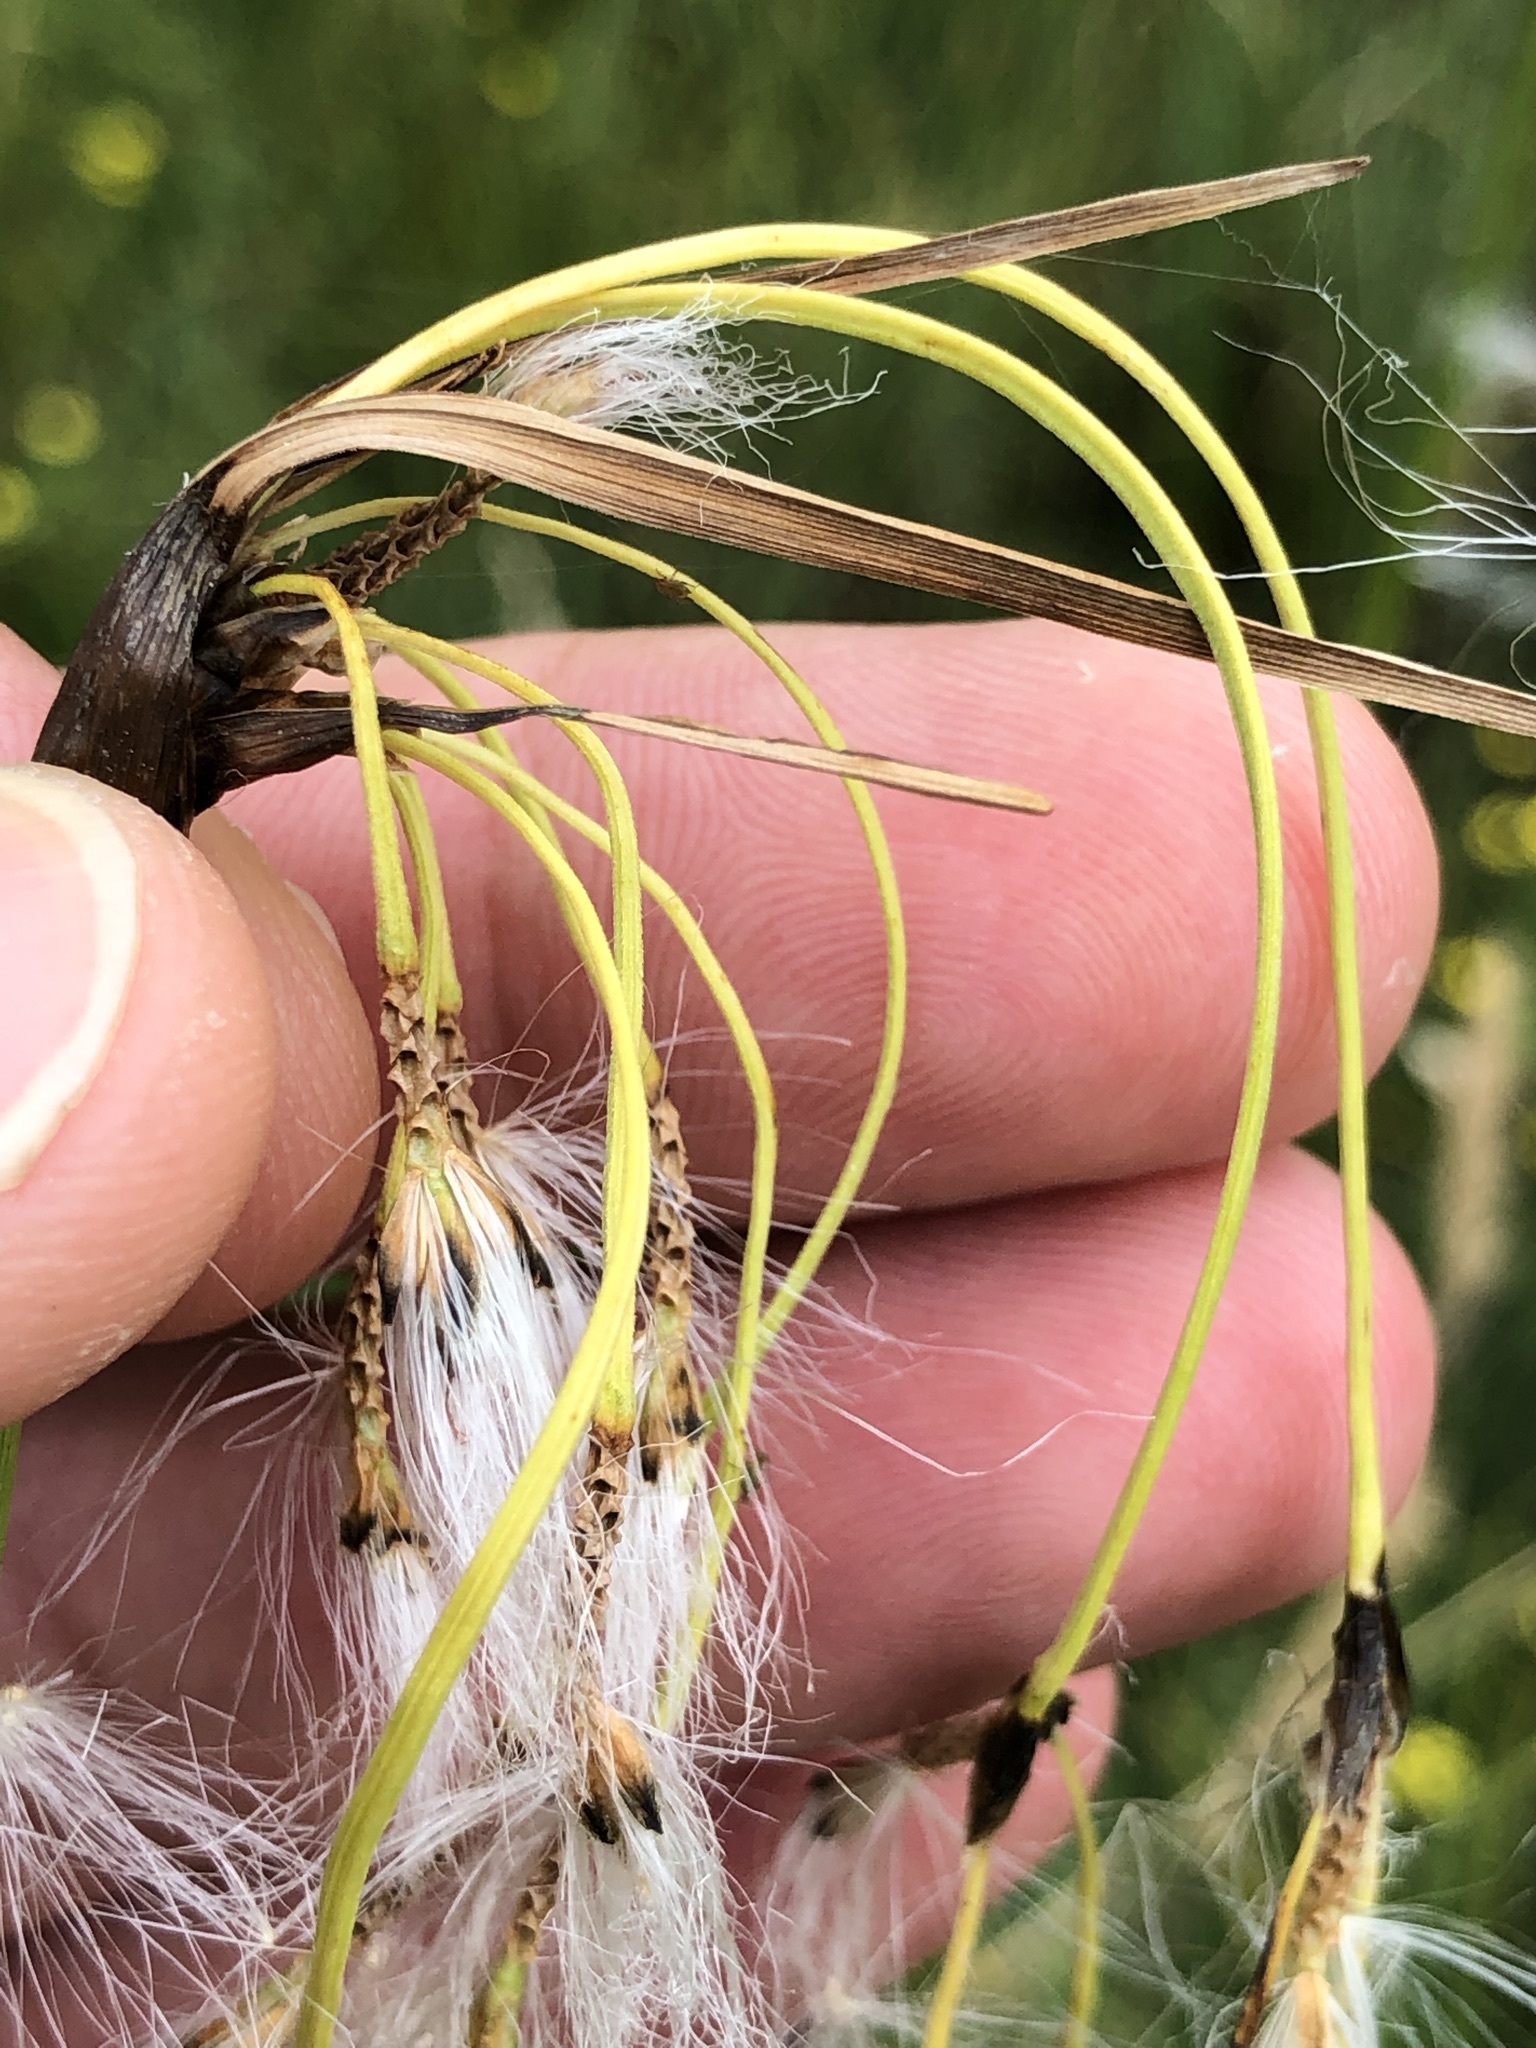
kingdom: Plantae
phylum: Tracheophyta
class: Liliopsida
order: Poales
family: Cyperaceae
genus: Eriophorum
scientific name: Eriophorum latifolium
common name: Broad-leaved cottongrass
